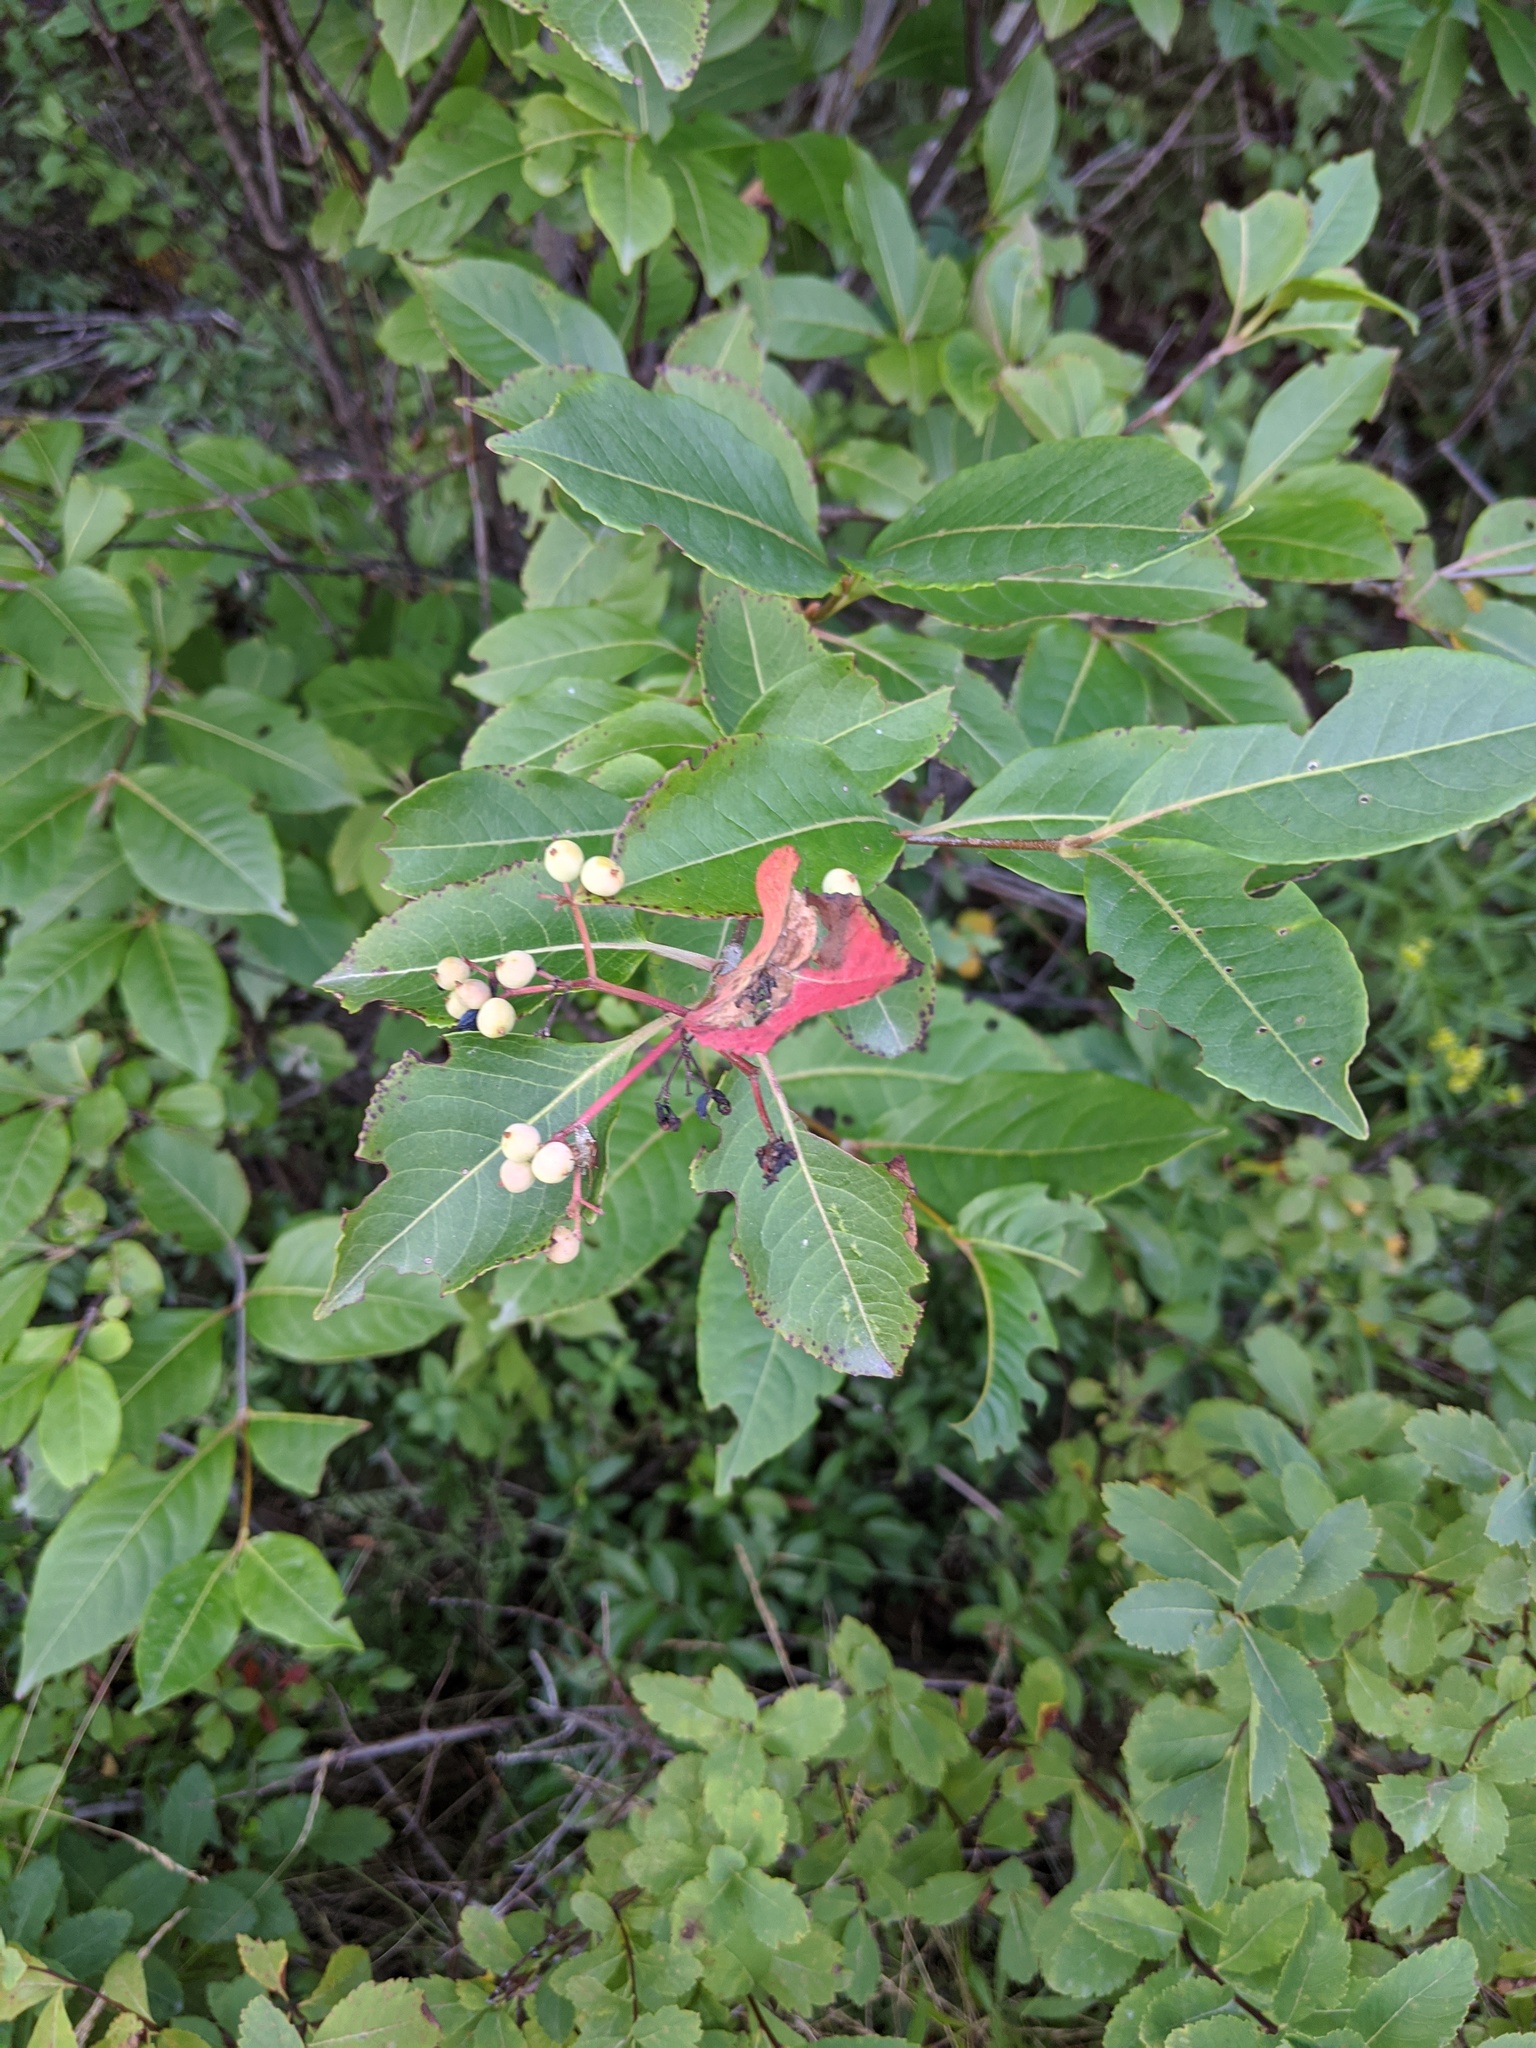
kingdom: Plantae
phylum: Tracheophyta
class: Magnoliopsida
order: Dipsacales
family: Viburnaceae
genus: Viburnum
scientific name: Viburnum cassinoides
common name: Swamp haw
